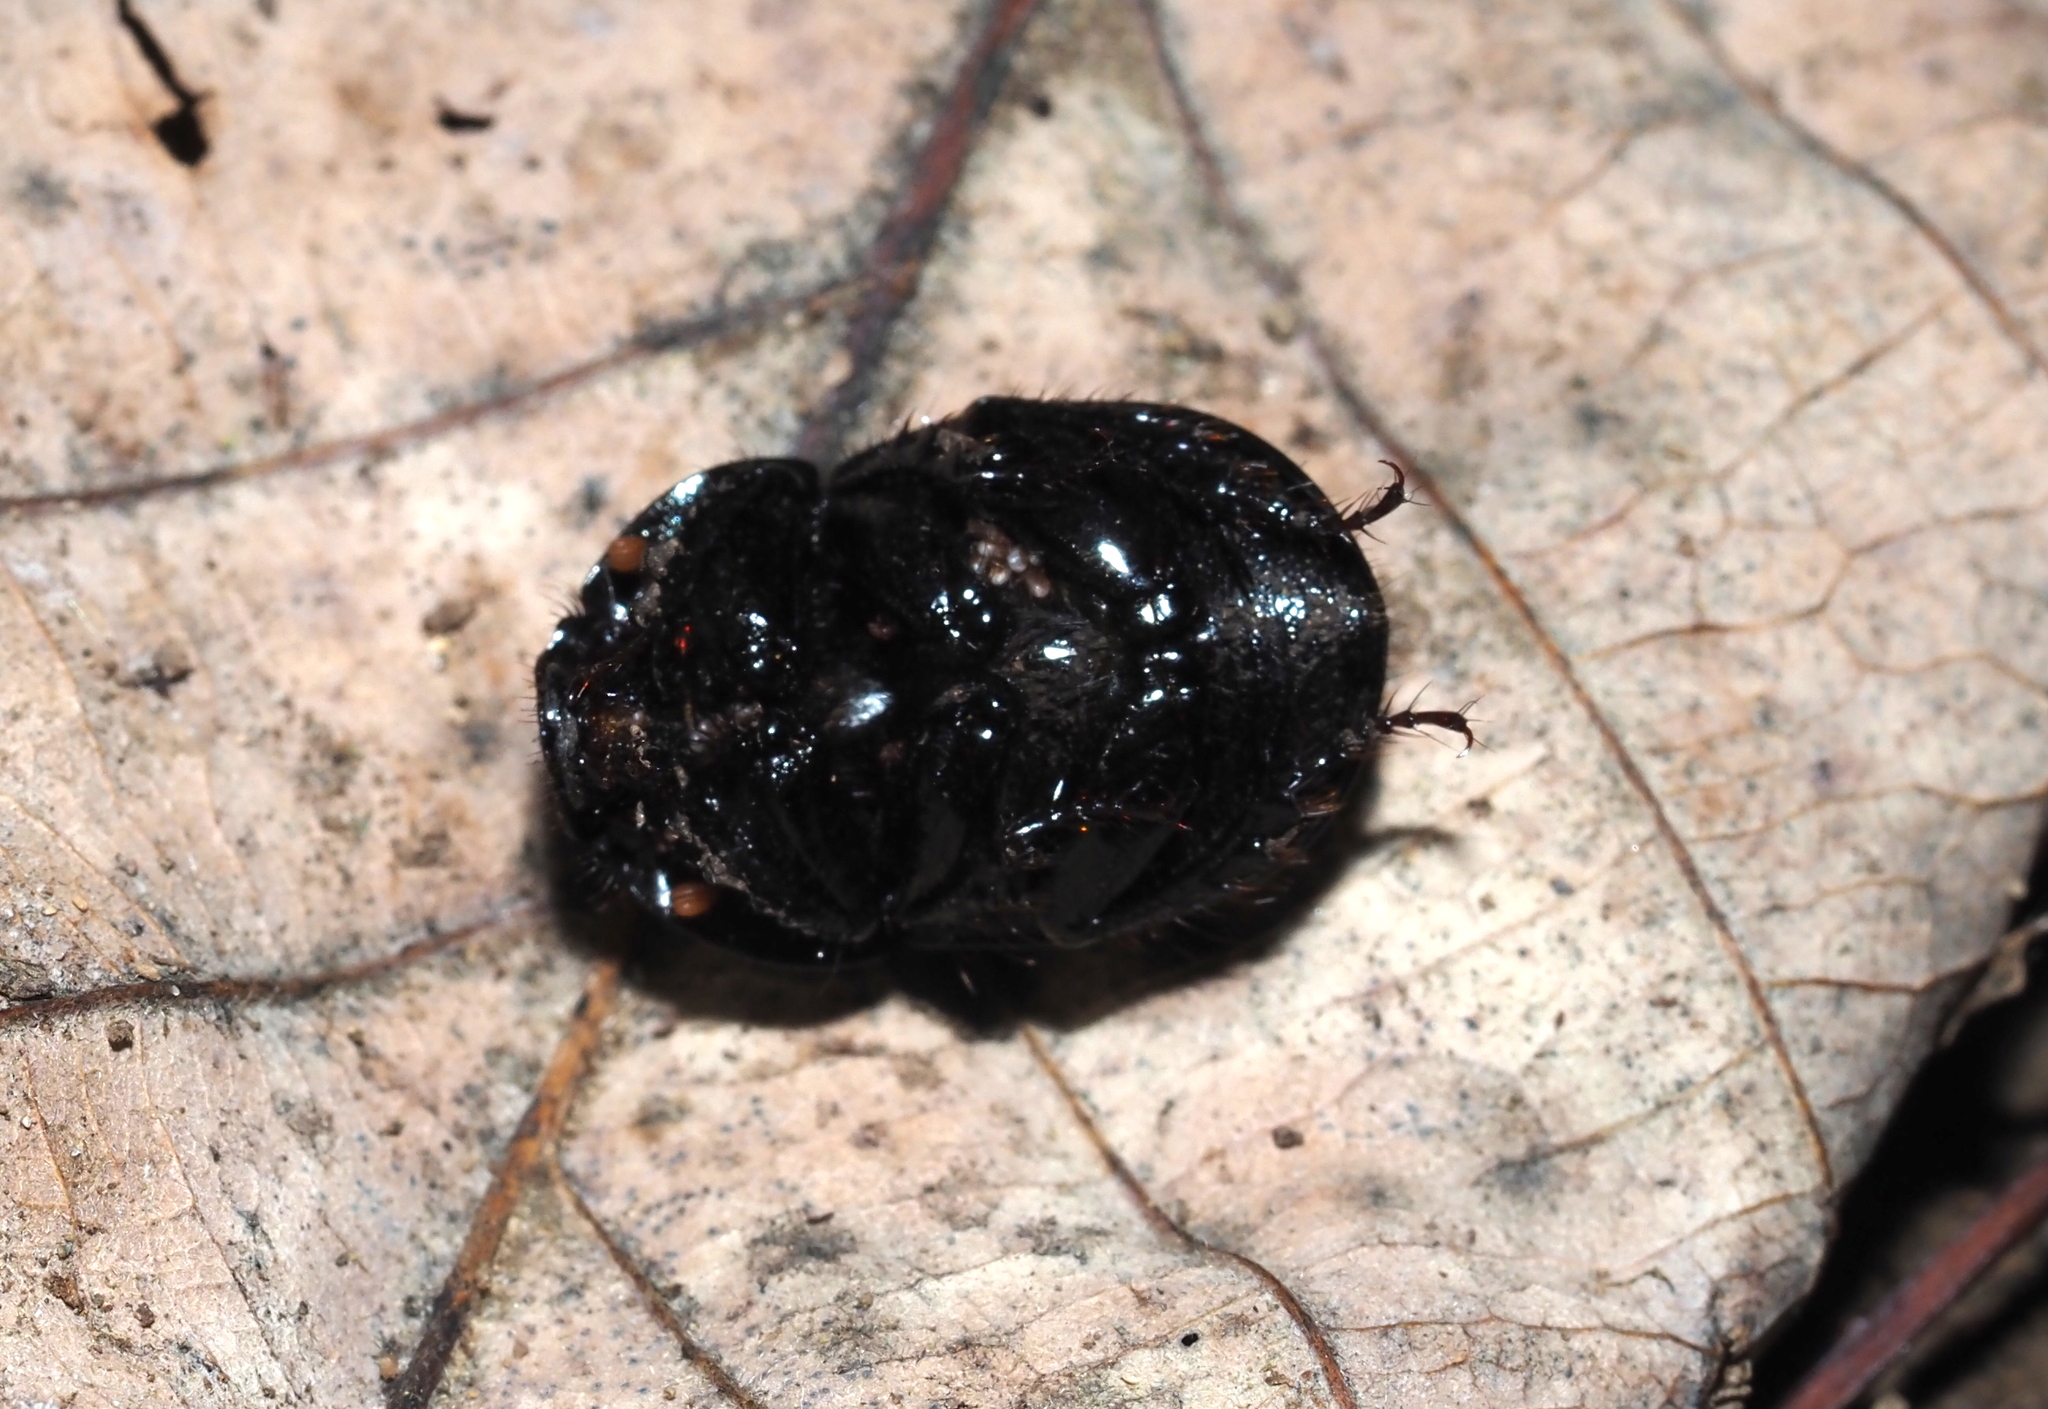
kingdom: Animalia
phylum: Arthropoda
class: Insecta
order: Coleoptera
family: Geotrupidae
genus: Anoplotrupes
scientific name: Anoplotrupes balyi
